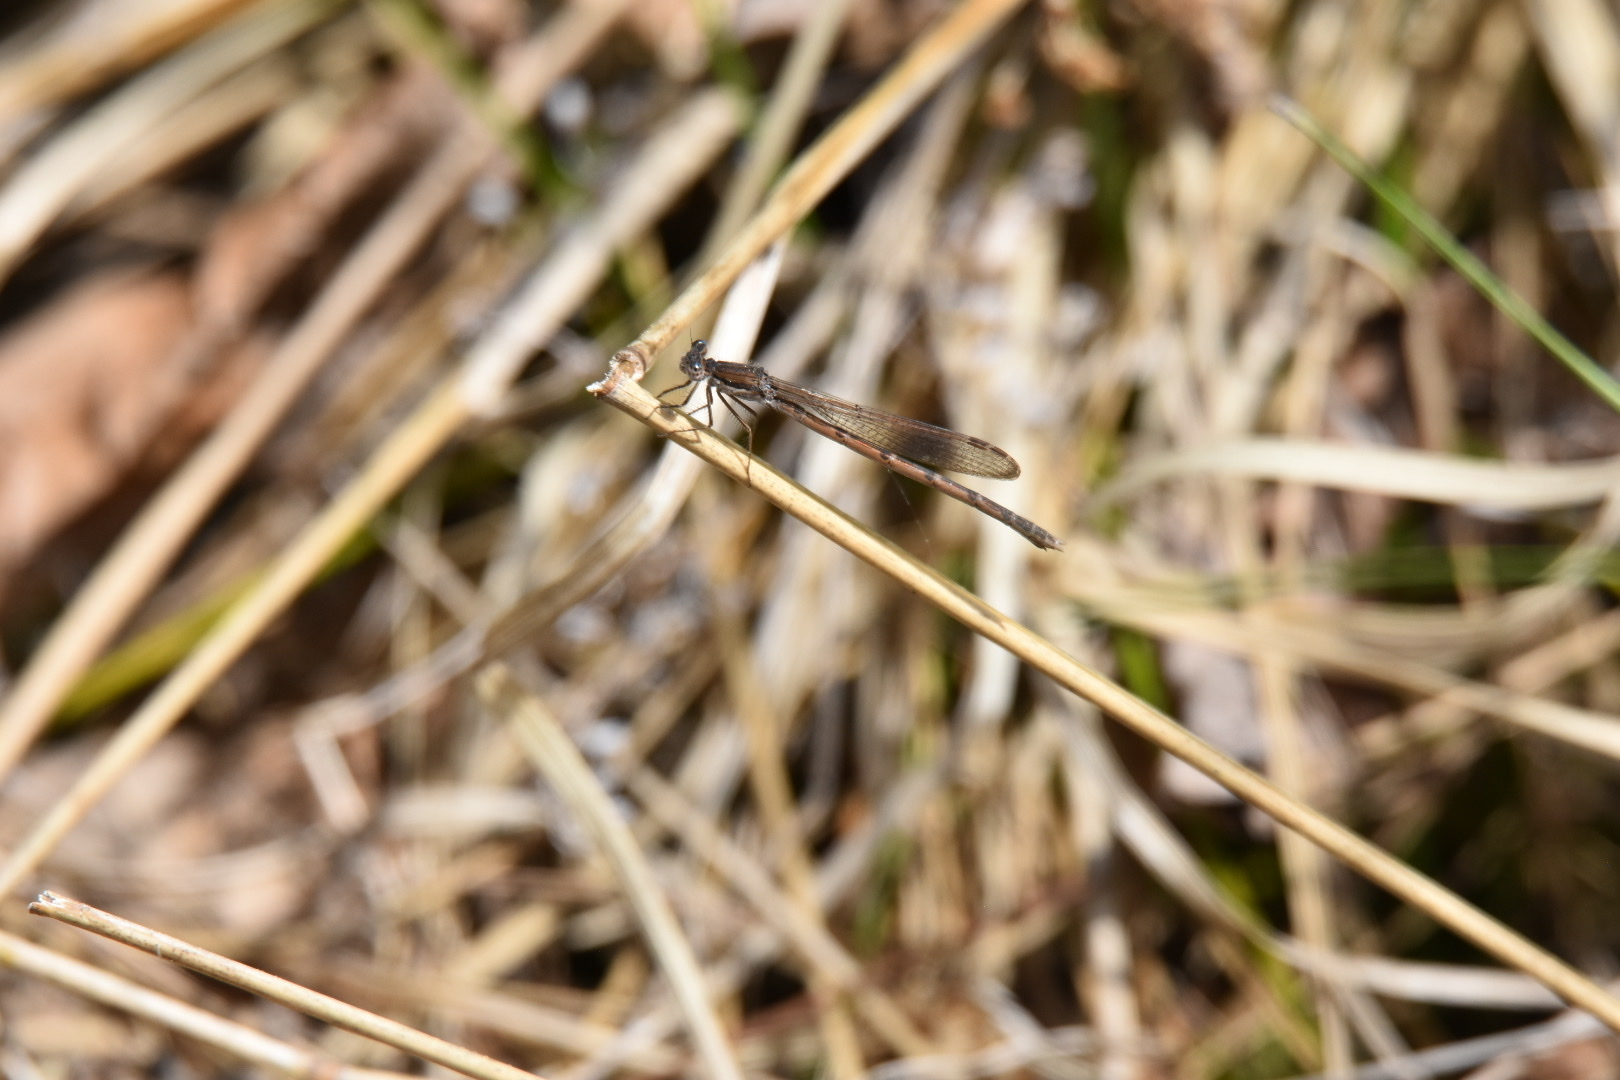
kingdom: Animalia
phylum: Arthropoda
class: Insecta
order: Odonata
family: Lestidae
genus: Sympecma
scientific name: Sympecma fusca
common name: Common winter damsel
